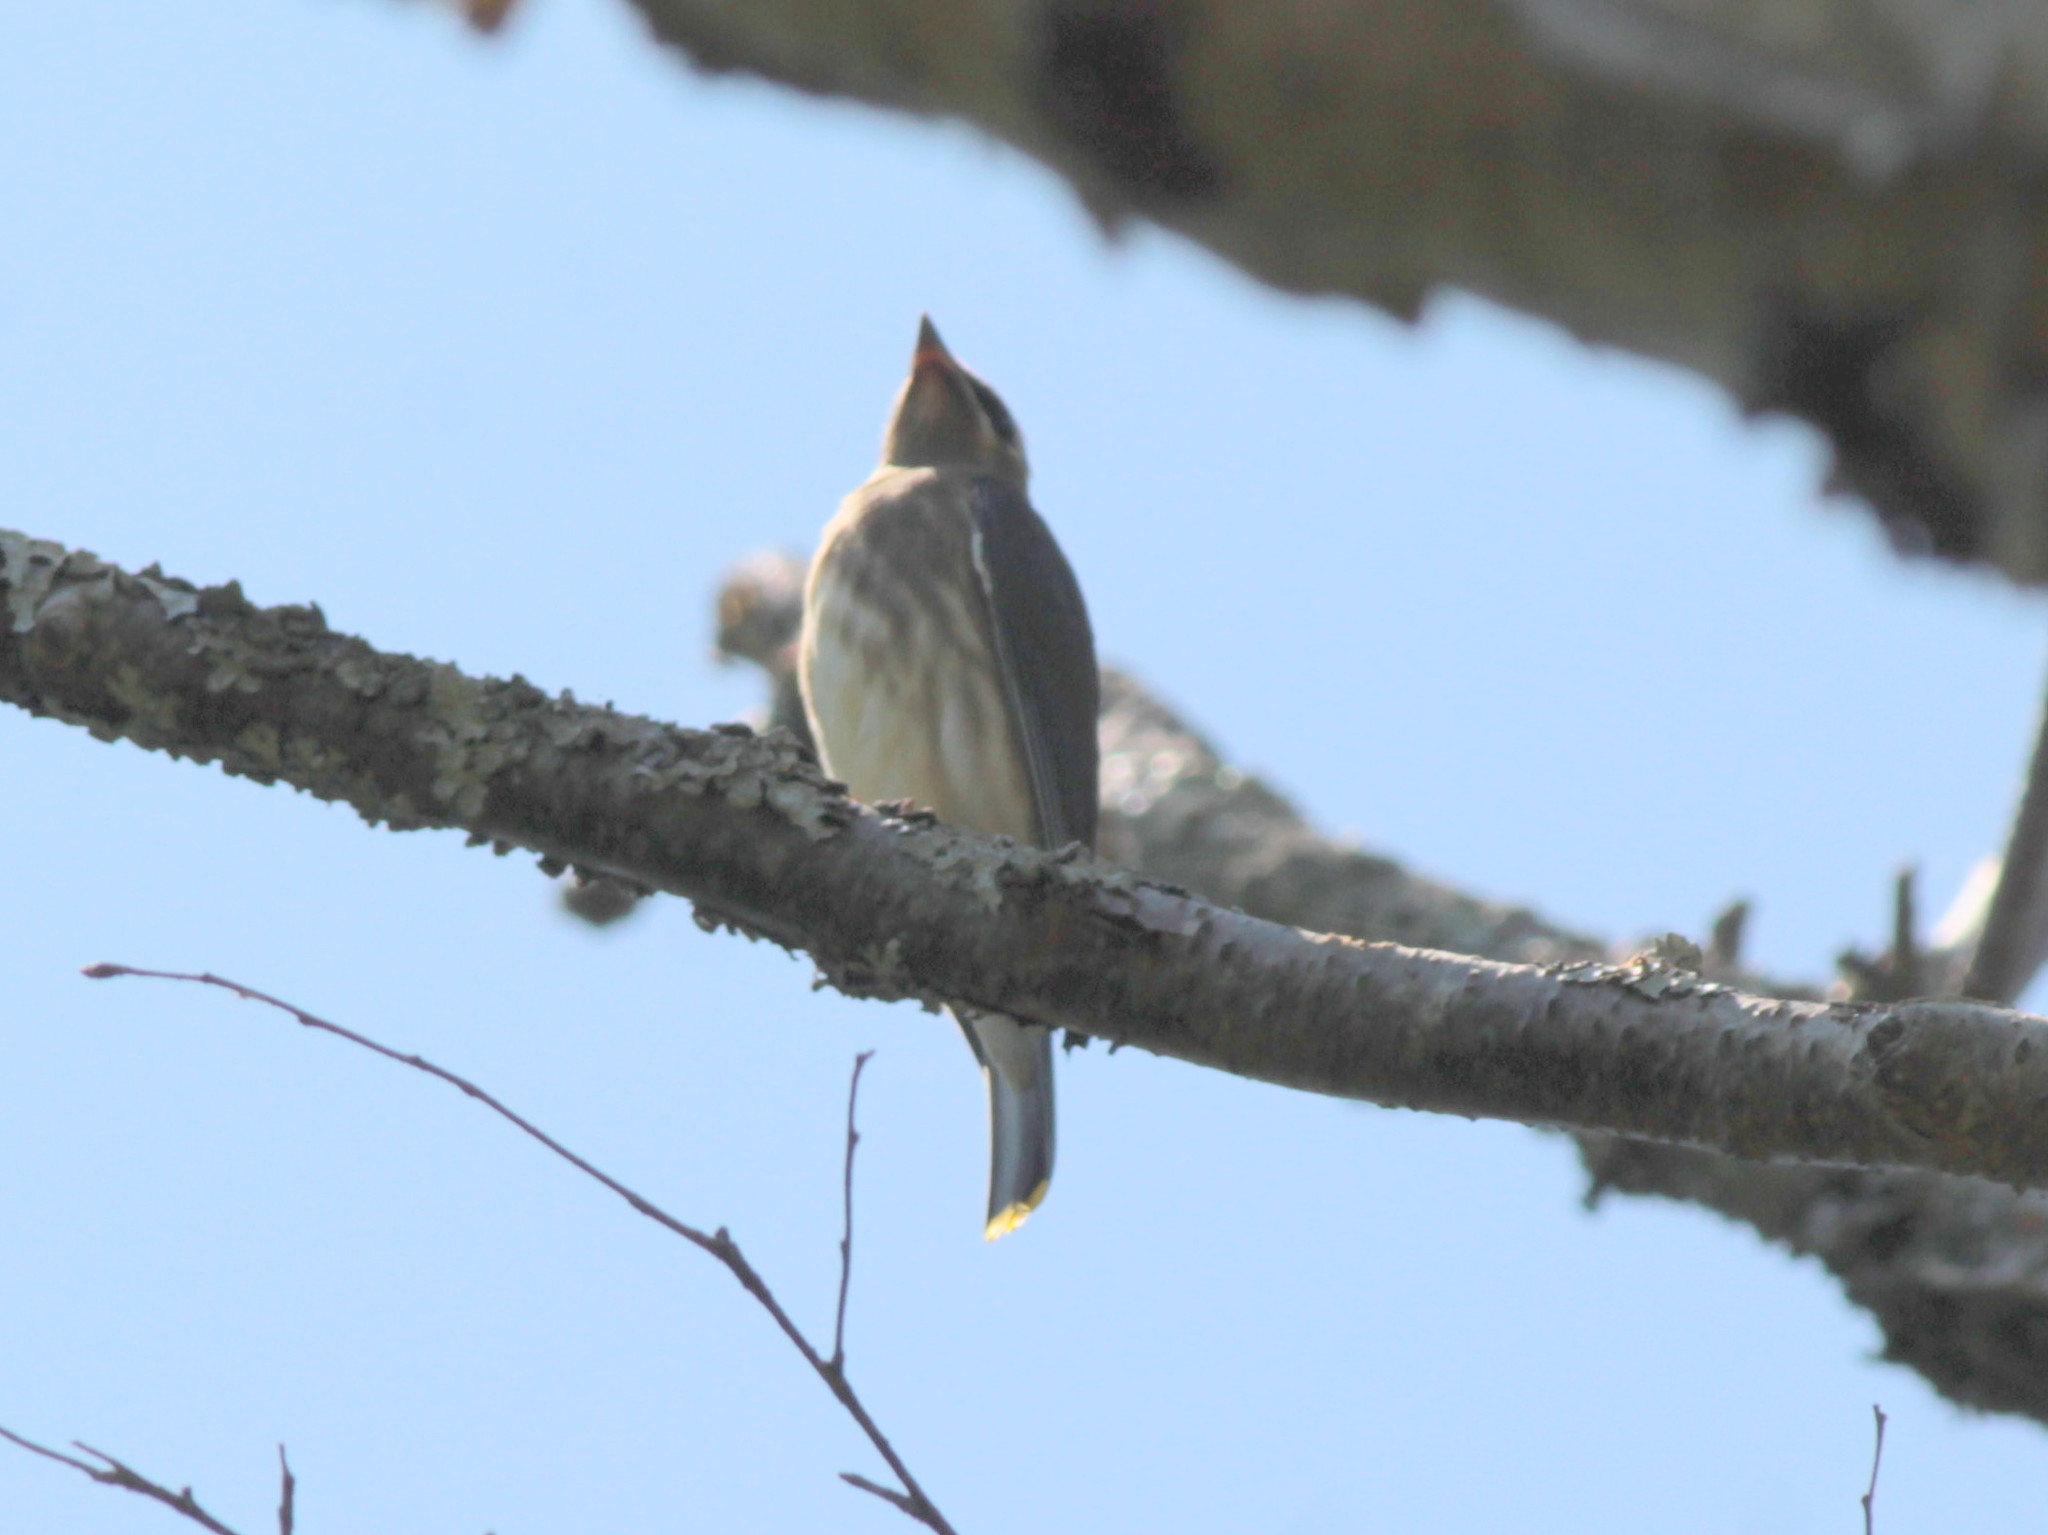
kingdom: Animalia
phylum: Chordata
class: Aves
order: Passeriformes
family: Bombycillidae
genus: Bombycilla
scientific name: Bombycilla cedrorum
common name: Cedar waxwing
